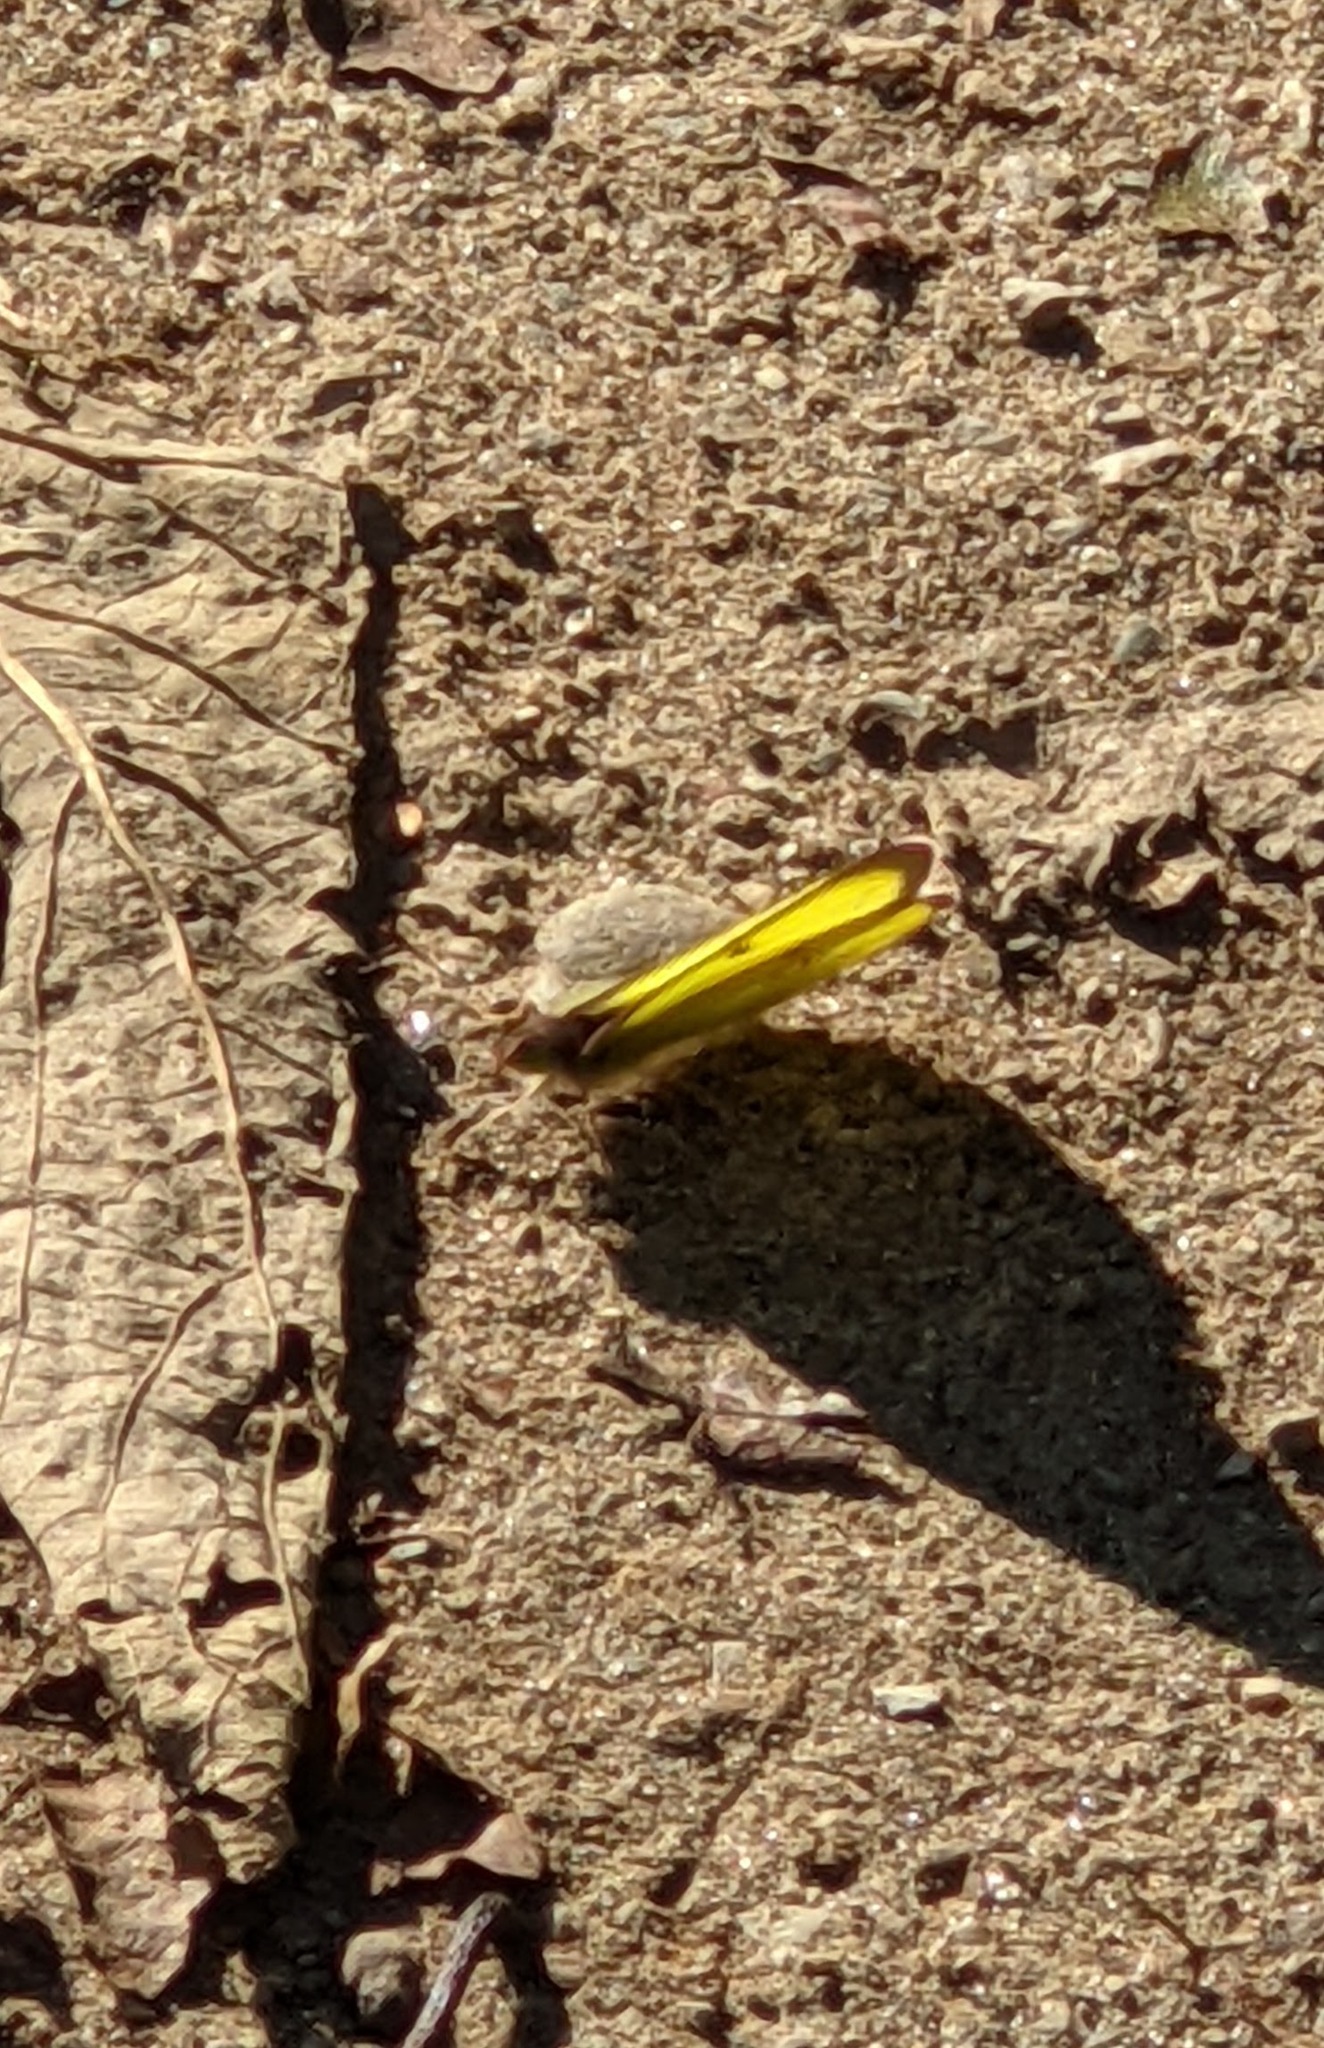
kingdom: Animalia
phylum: Arthropoda
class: Insecta
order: Lepidoptera
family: Pieridae
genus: Colias
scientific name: Colias philodice
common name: Clouded sulphur
